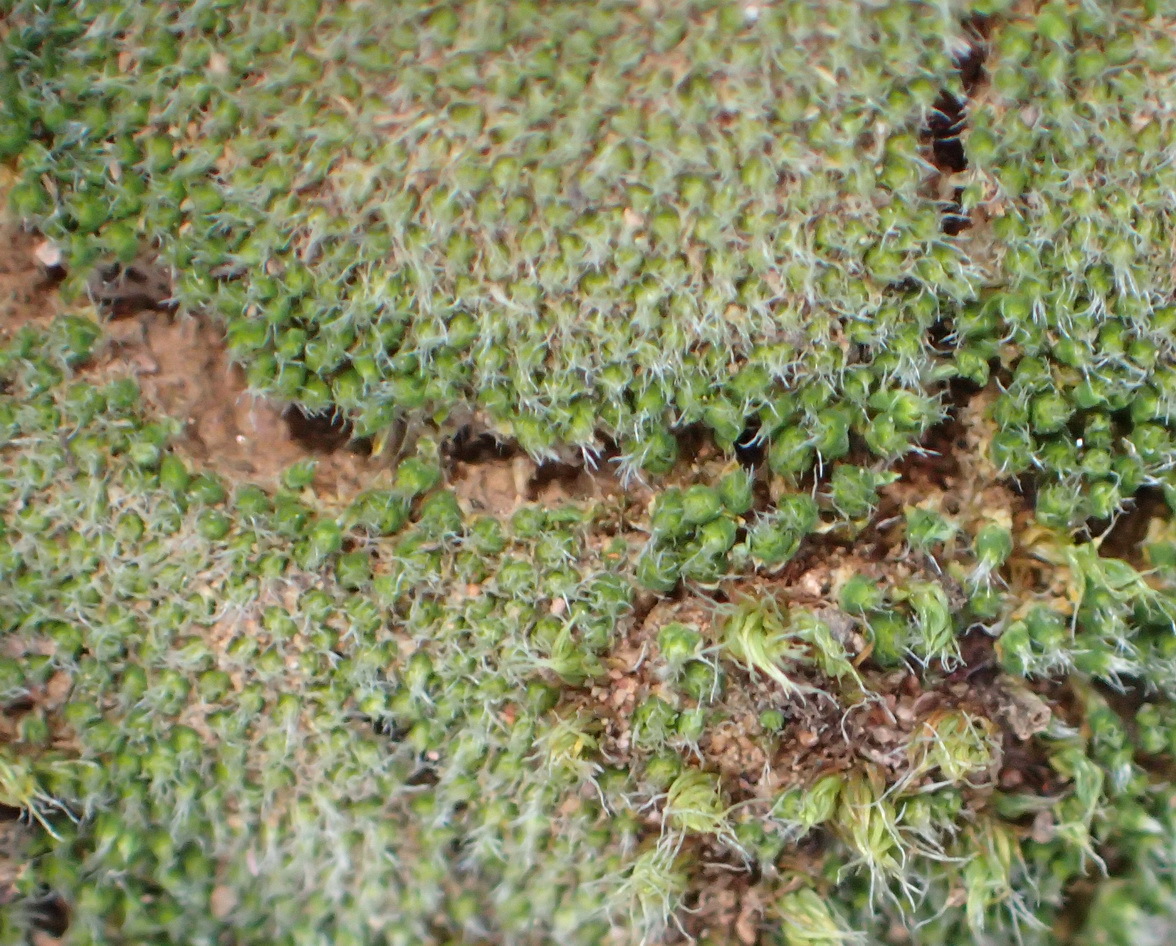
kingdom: Plantae
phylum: Bryophyta
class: Bryopsida
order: Gigaspermales
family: Gigaspermaceae
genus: Gigaspermum
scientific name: Gigaspermum repens
